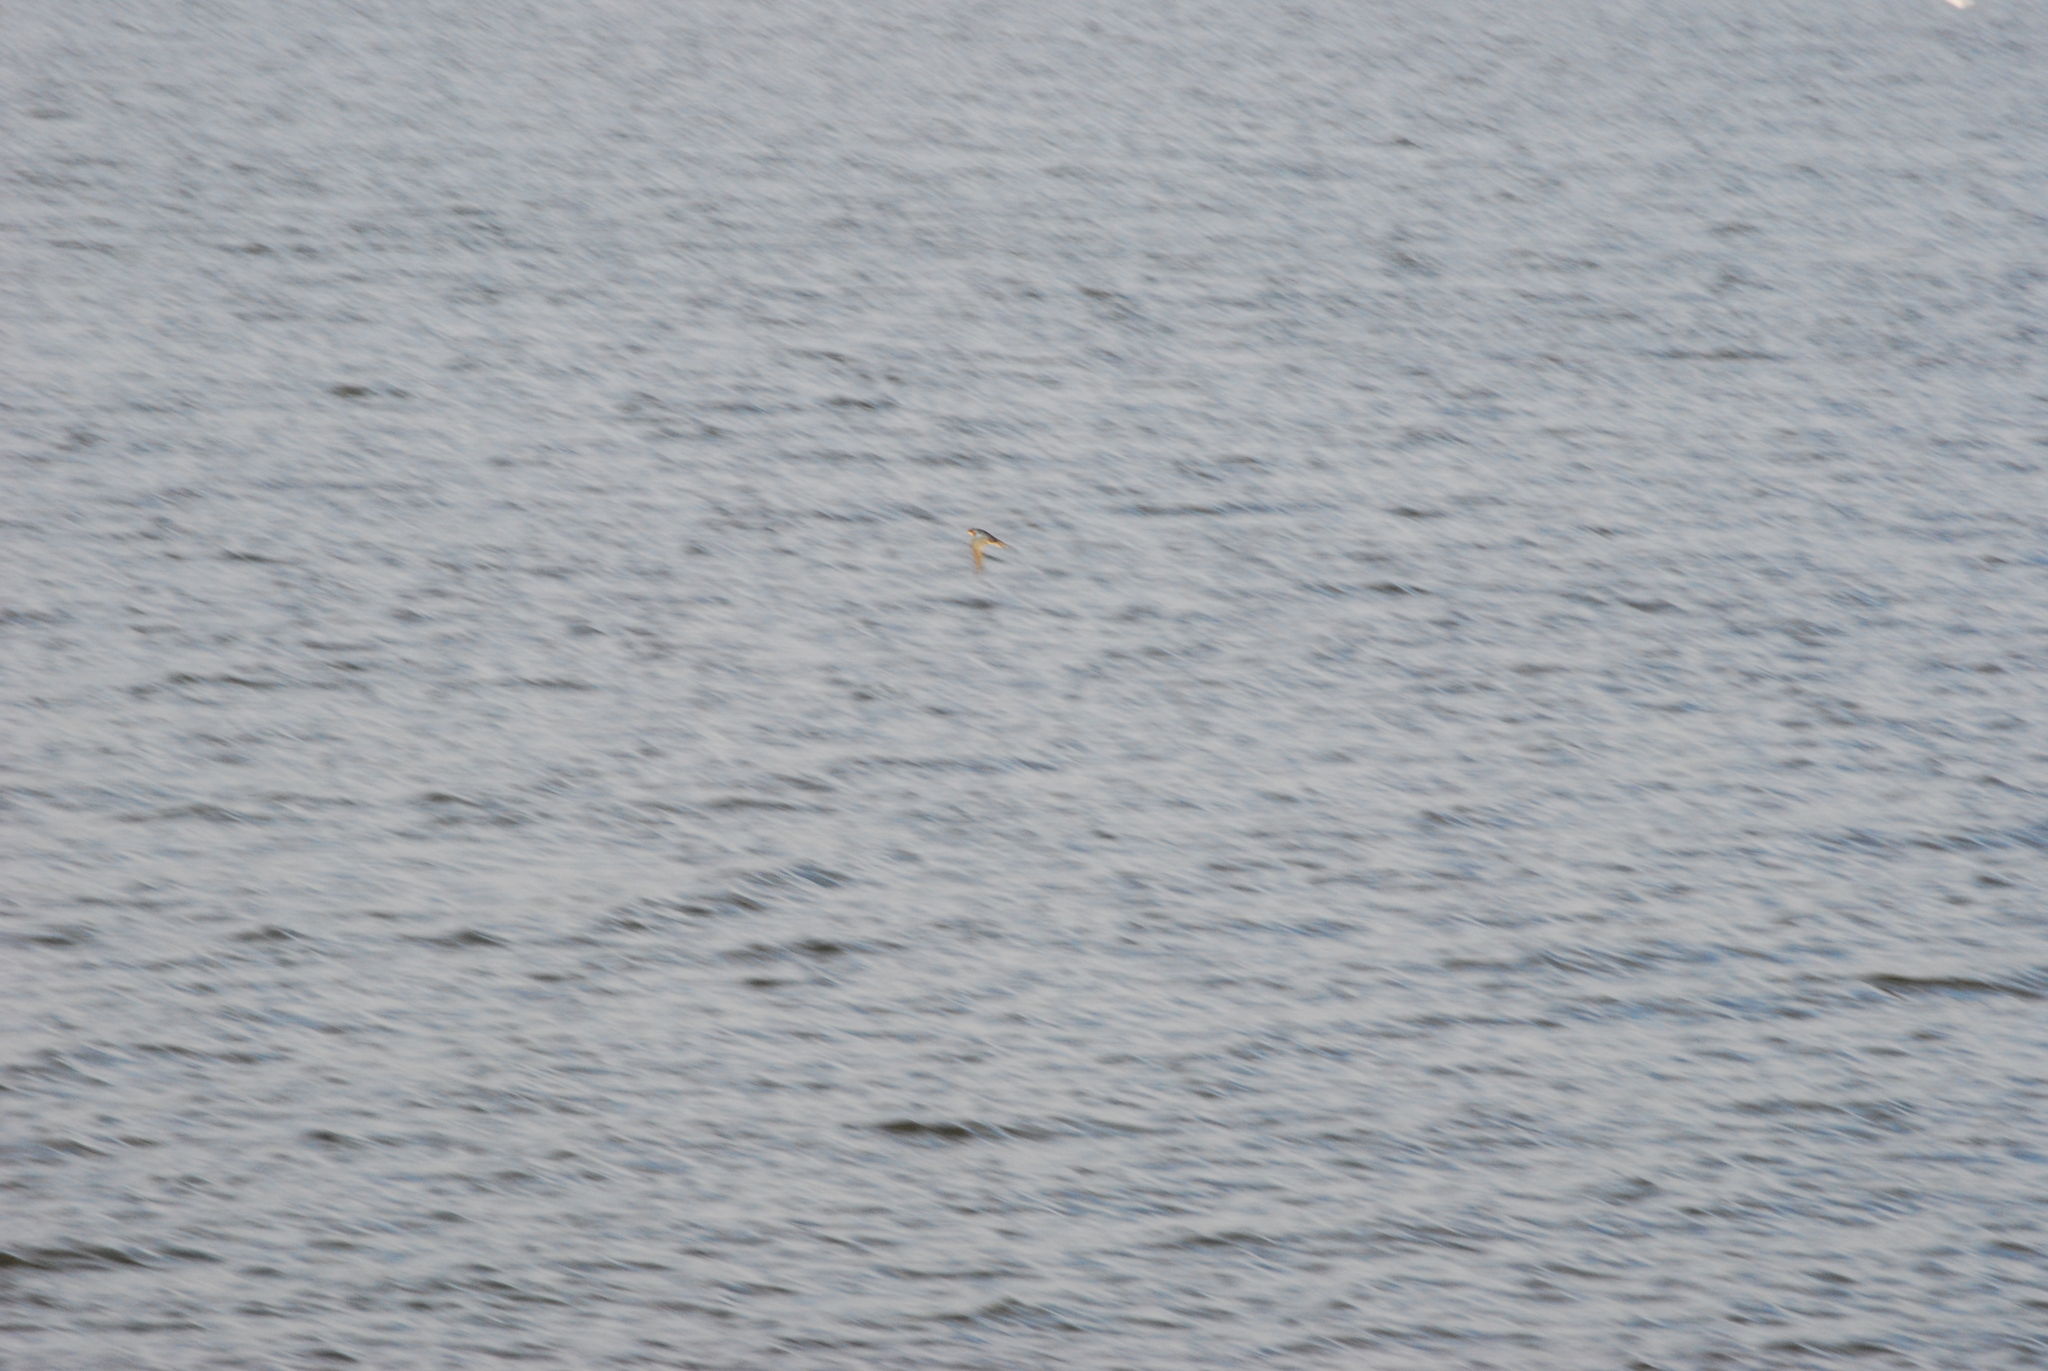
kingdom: Animalia
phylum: Chordata
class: Aves
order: Passeriformes
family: Hirundinidae
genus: Hirundo
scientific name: Hirundo rustica
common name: Barn swallow
